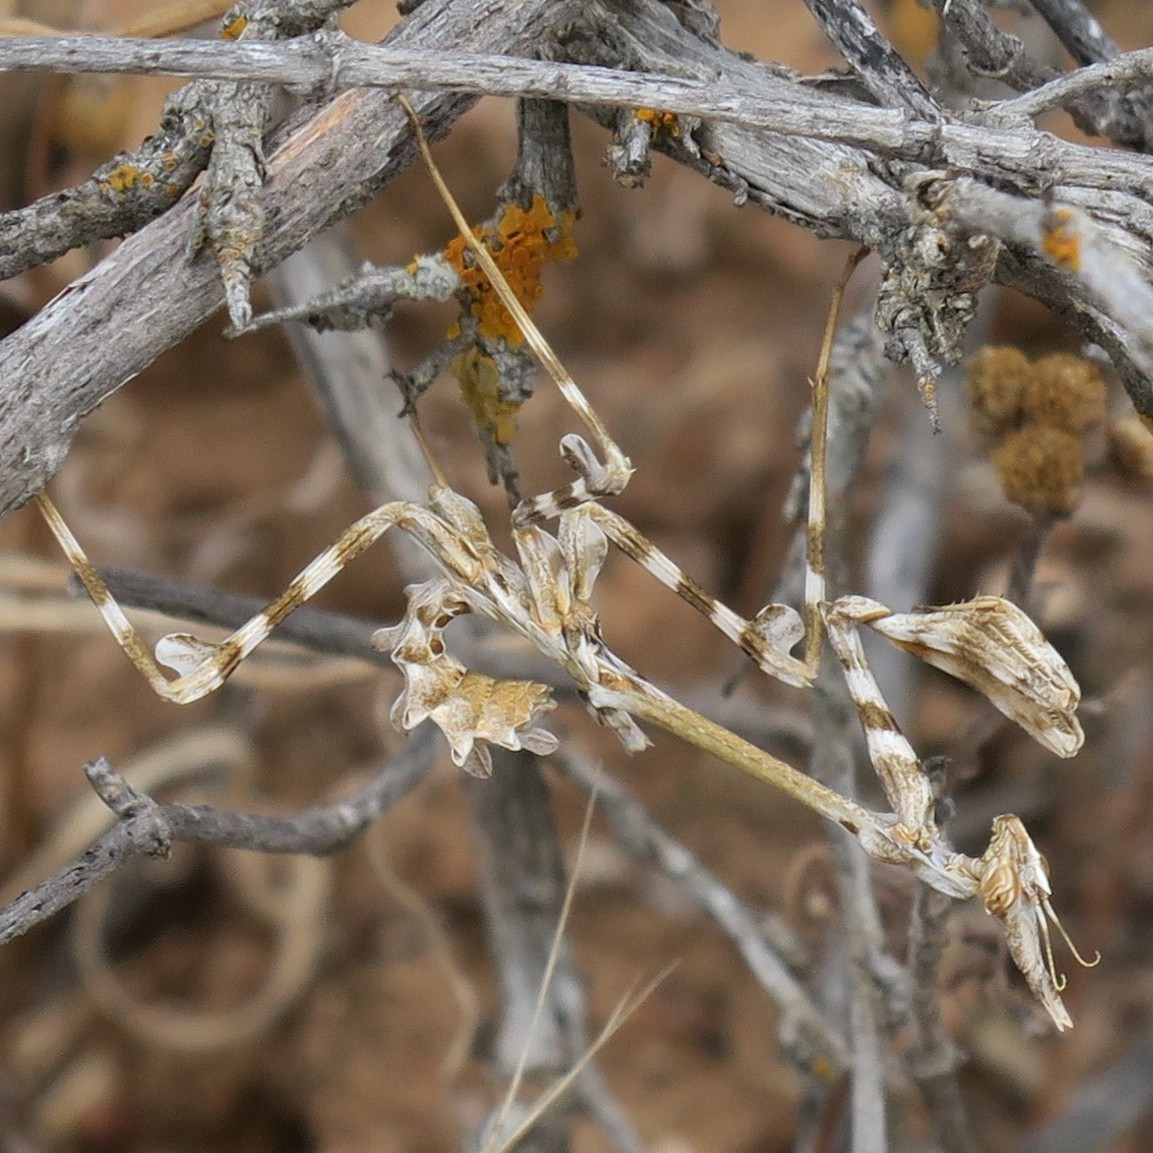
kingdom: Animalia
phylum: Arthropoda
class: Insecta
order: Mantodea
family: Empusidae
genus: Empusa
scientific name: Empusa binotata
